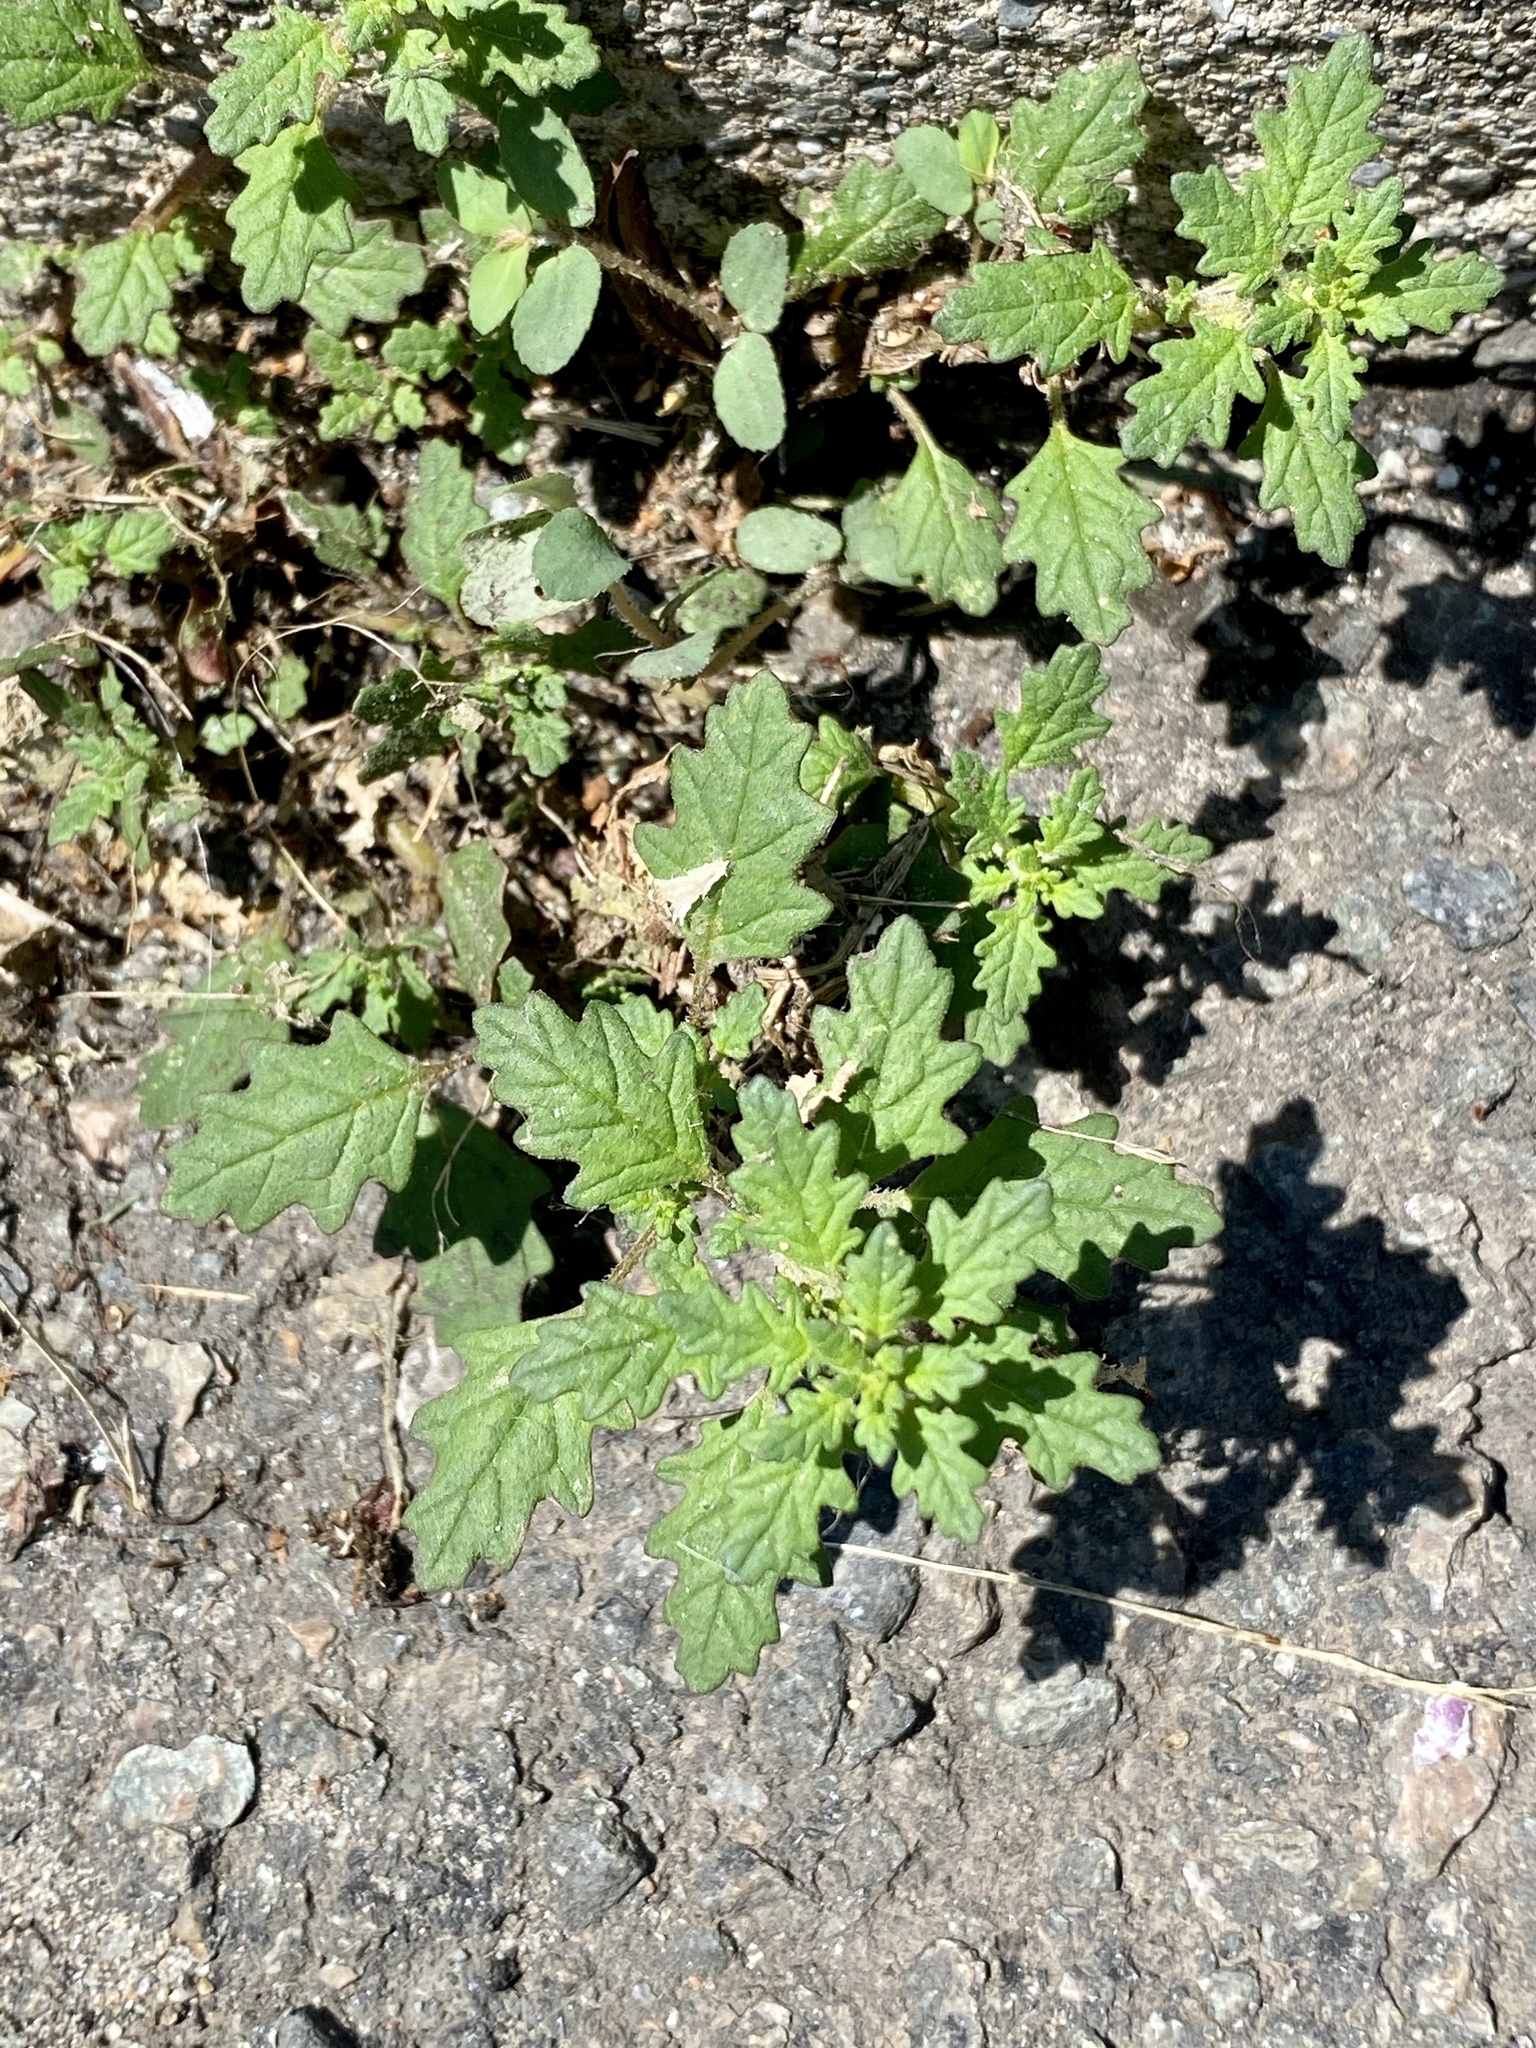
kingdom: Plantae
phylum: Tracheophyta
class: Magnoliopsida
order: Caryophyllales
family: Amaranthaceae
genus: Dysphania
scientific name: Dysphania pumilio
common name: Clammy goosefoot
